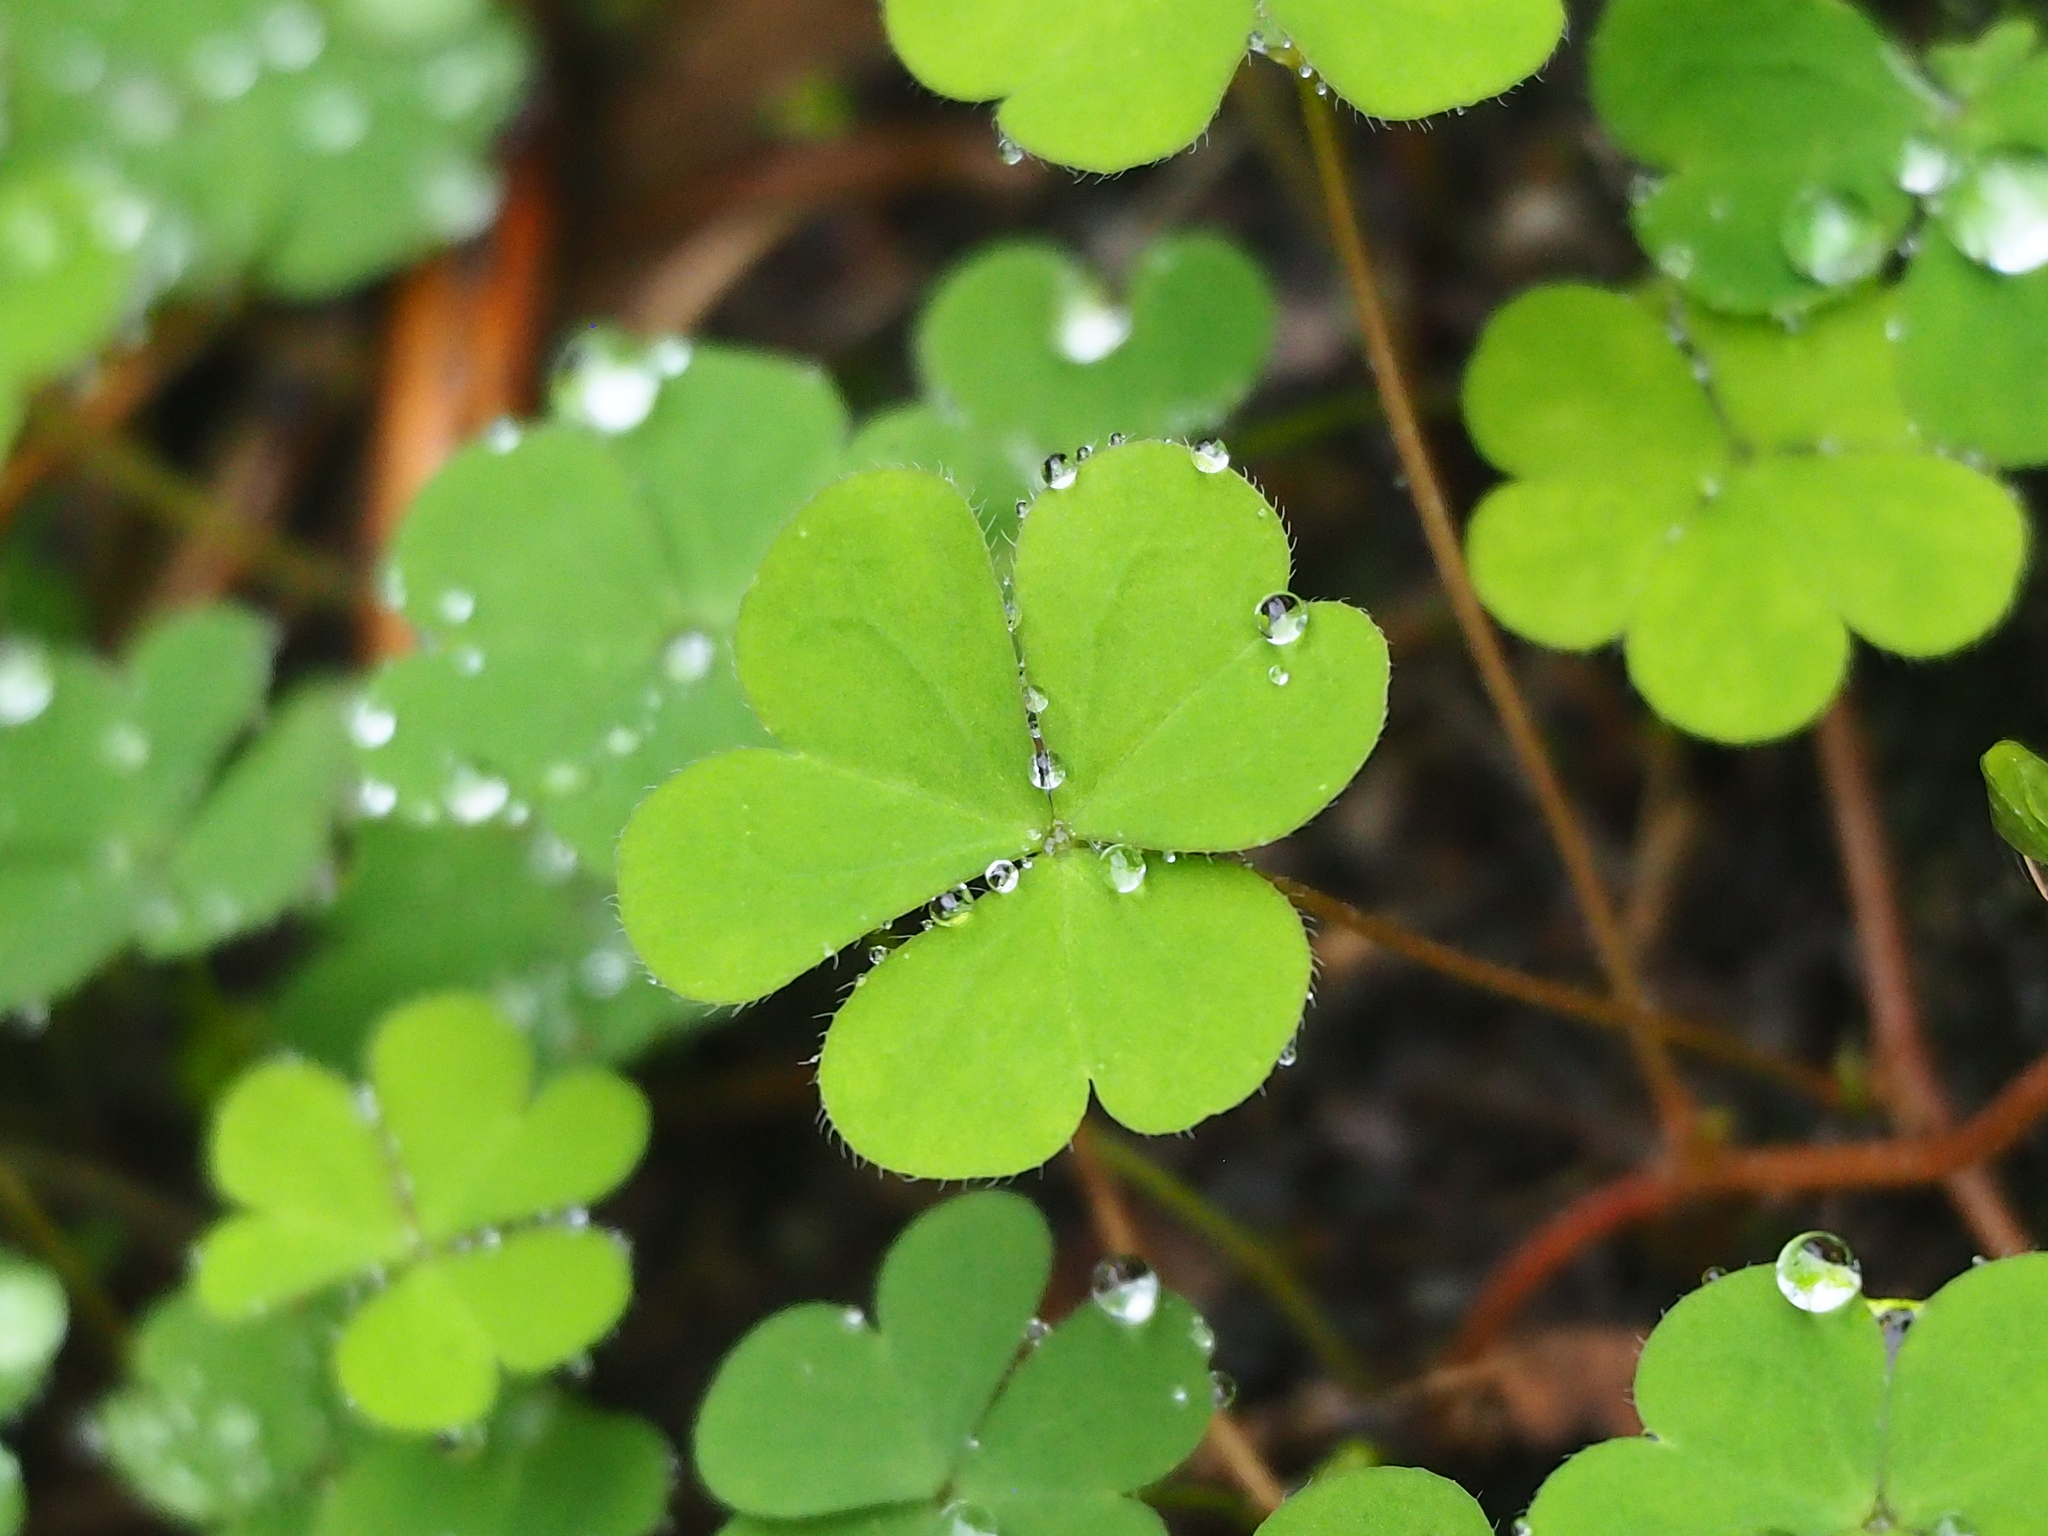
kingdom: Plantae
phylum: Tracheophyta
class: Magnoliopsida
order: Oxalidales
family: Oxalidaceae
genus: Oxalis
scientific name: Oxalis corniculata
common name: Procumbent yellow-sorrel
